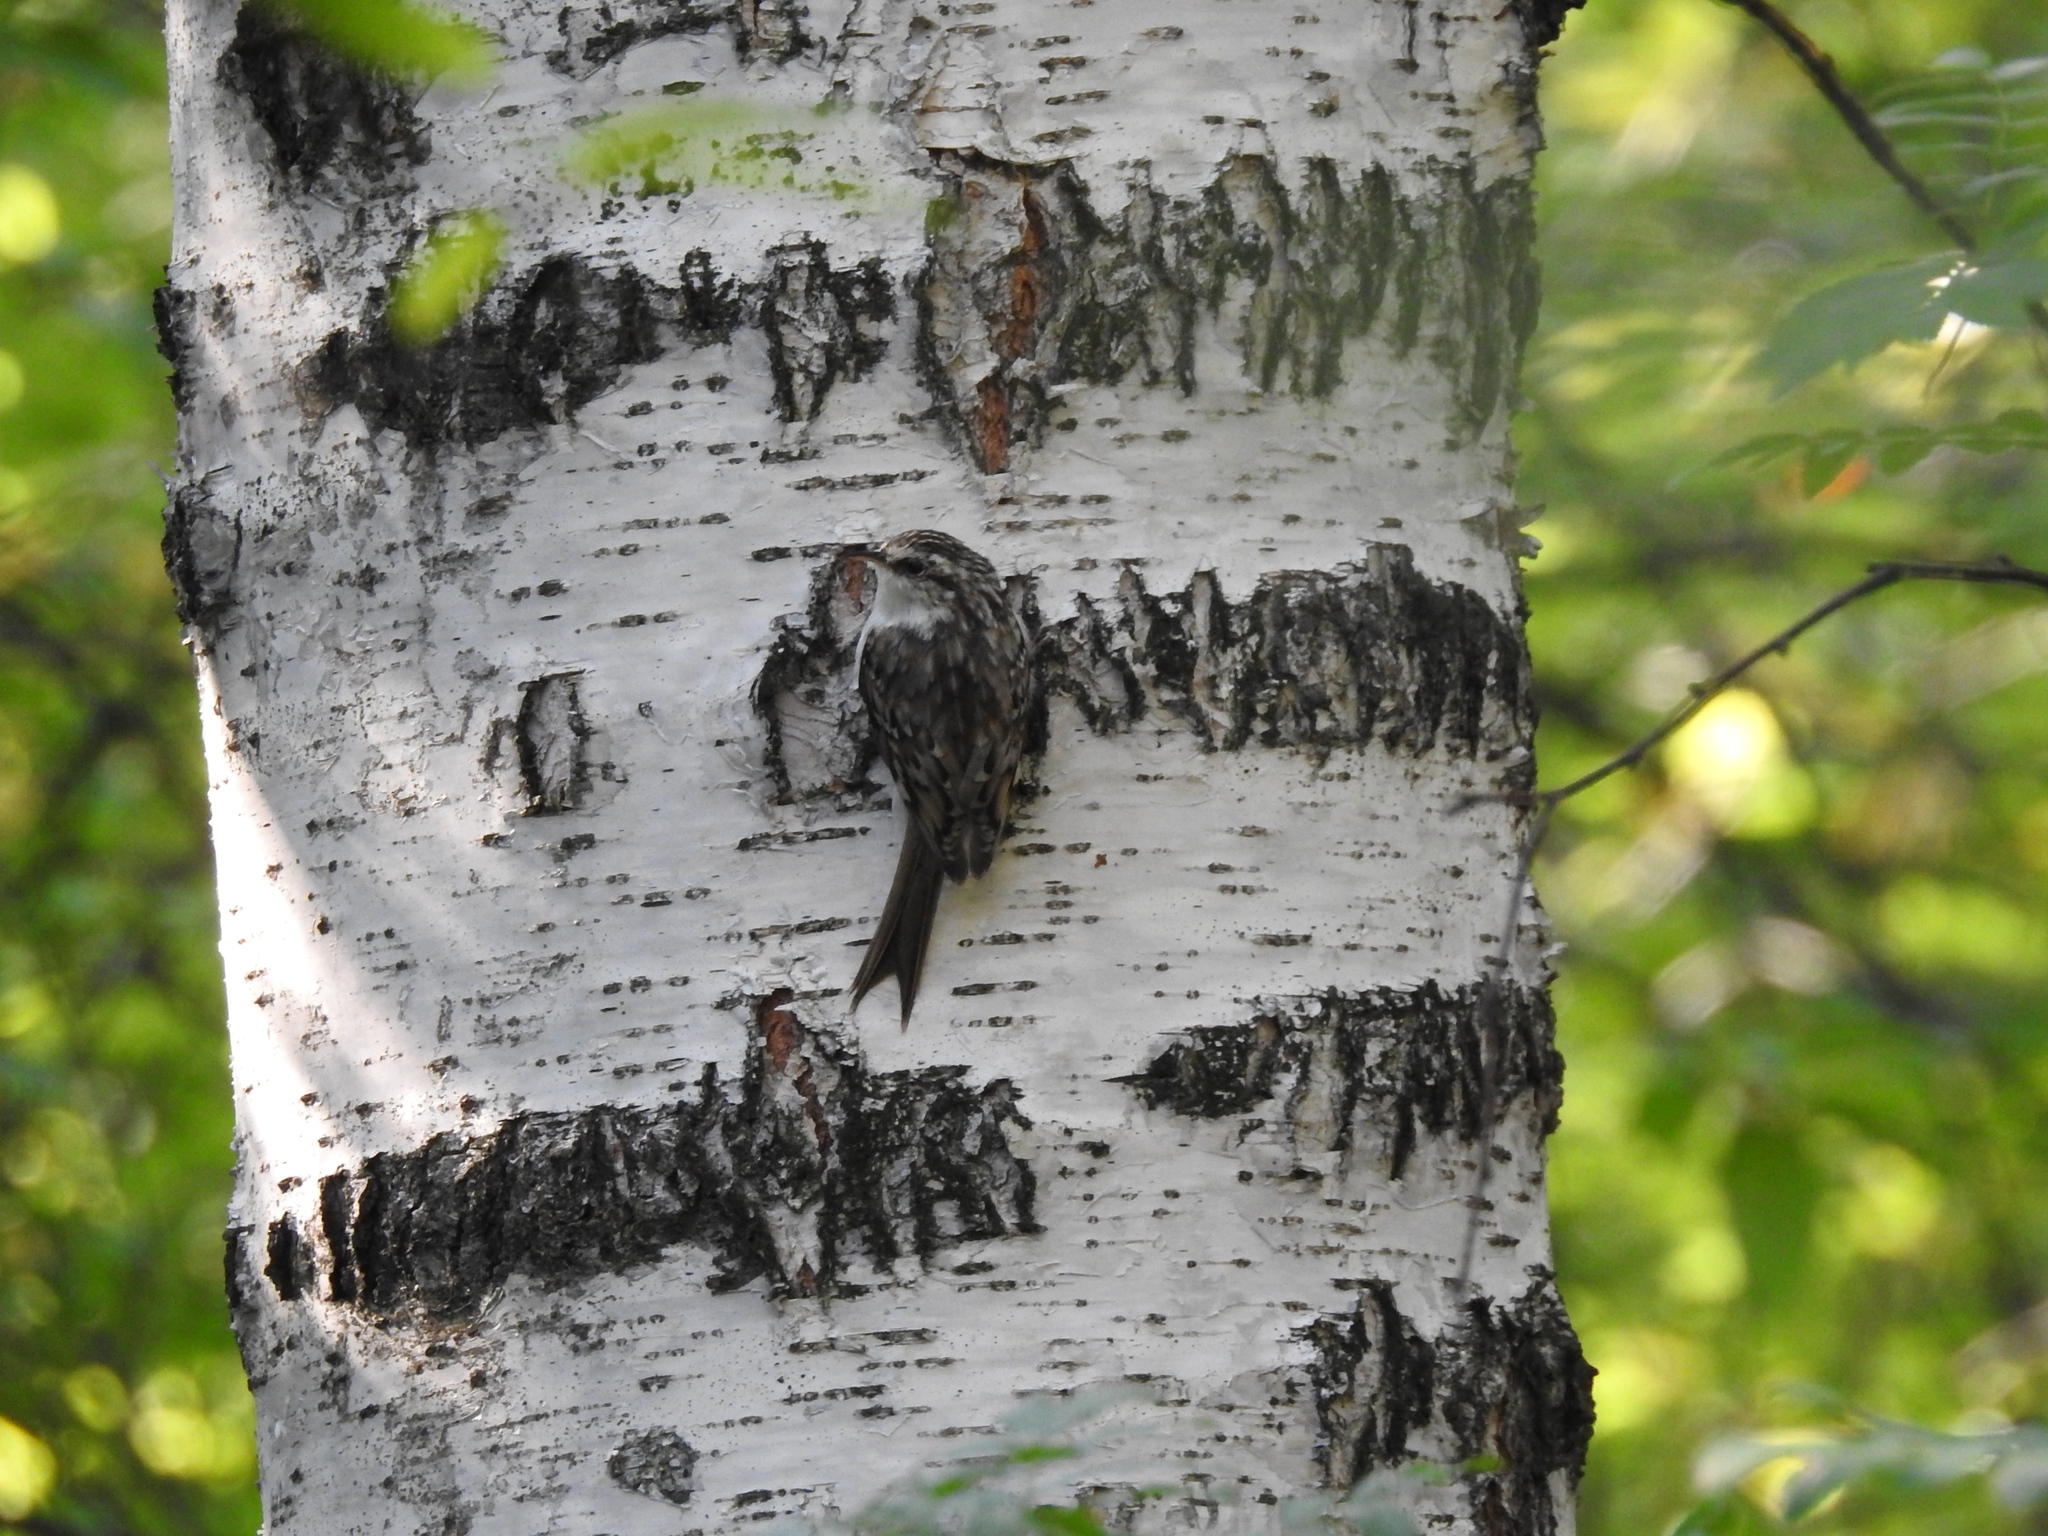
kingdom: Animalia
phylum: Chordata
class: Aves
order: Passeriformes
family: Certhiidae
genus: Certhia
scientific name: Certhia familiaris
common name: Eurasian treecreeper
